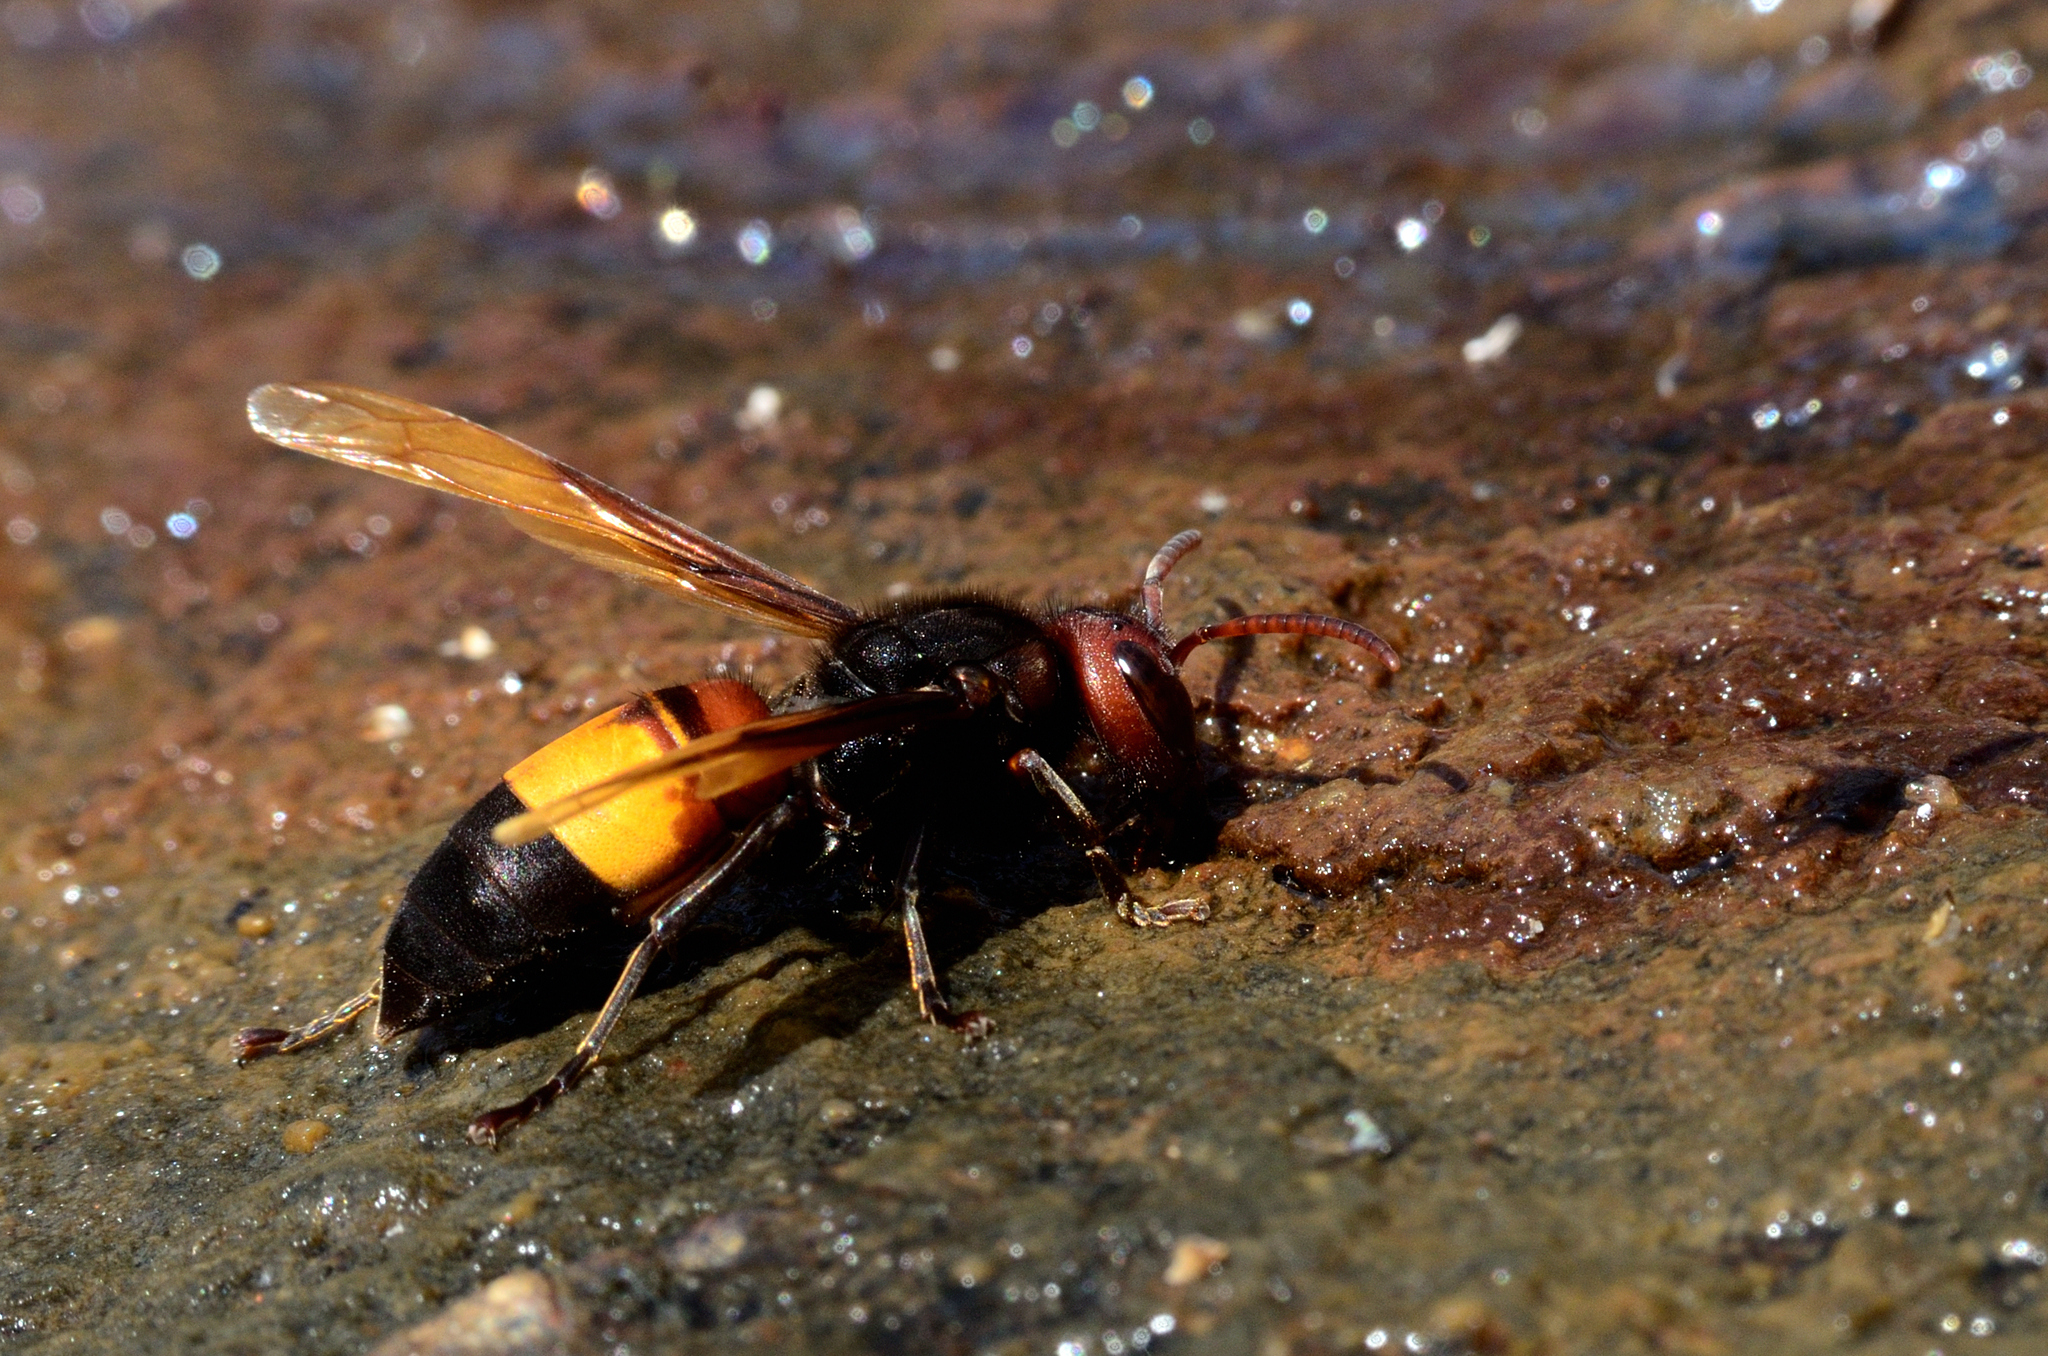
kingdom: Animalia
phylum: Arthropoda
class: Insecta
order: Hymenoptera
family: Vespidae
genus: Vespa
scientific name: Vespa affinis
